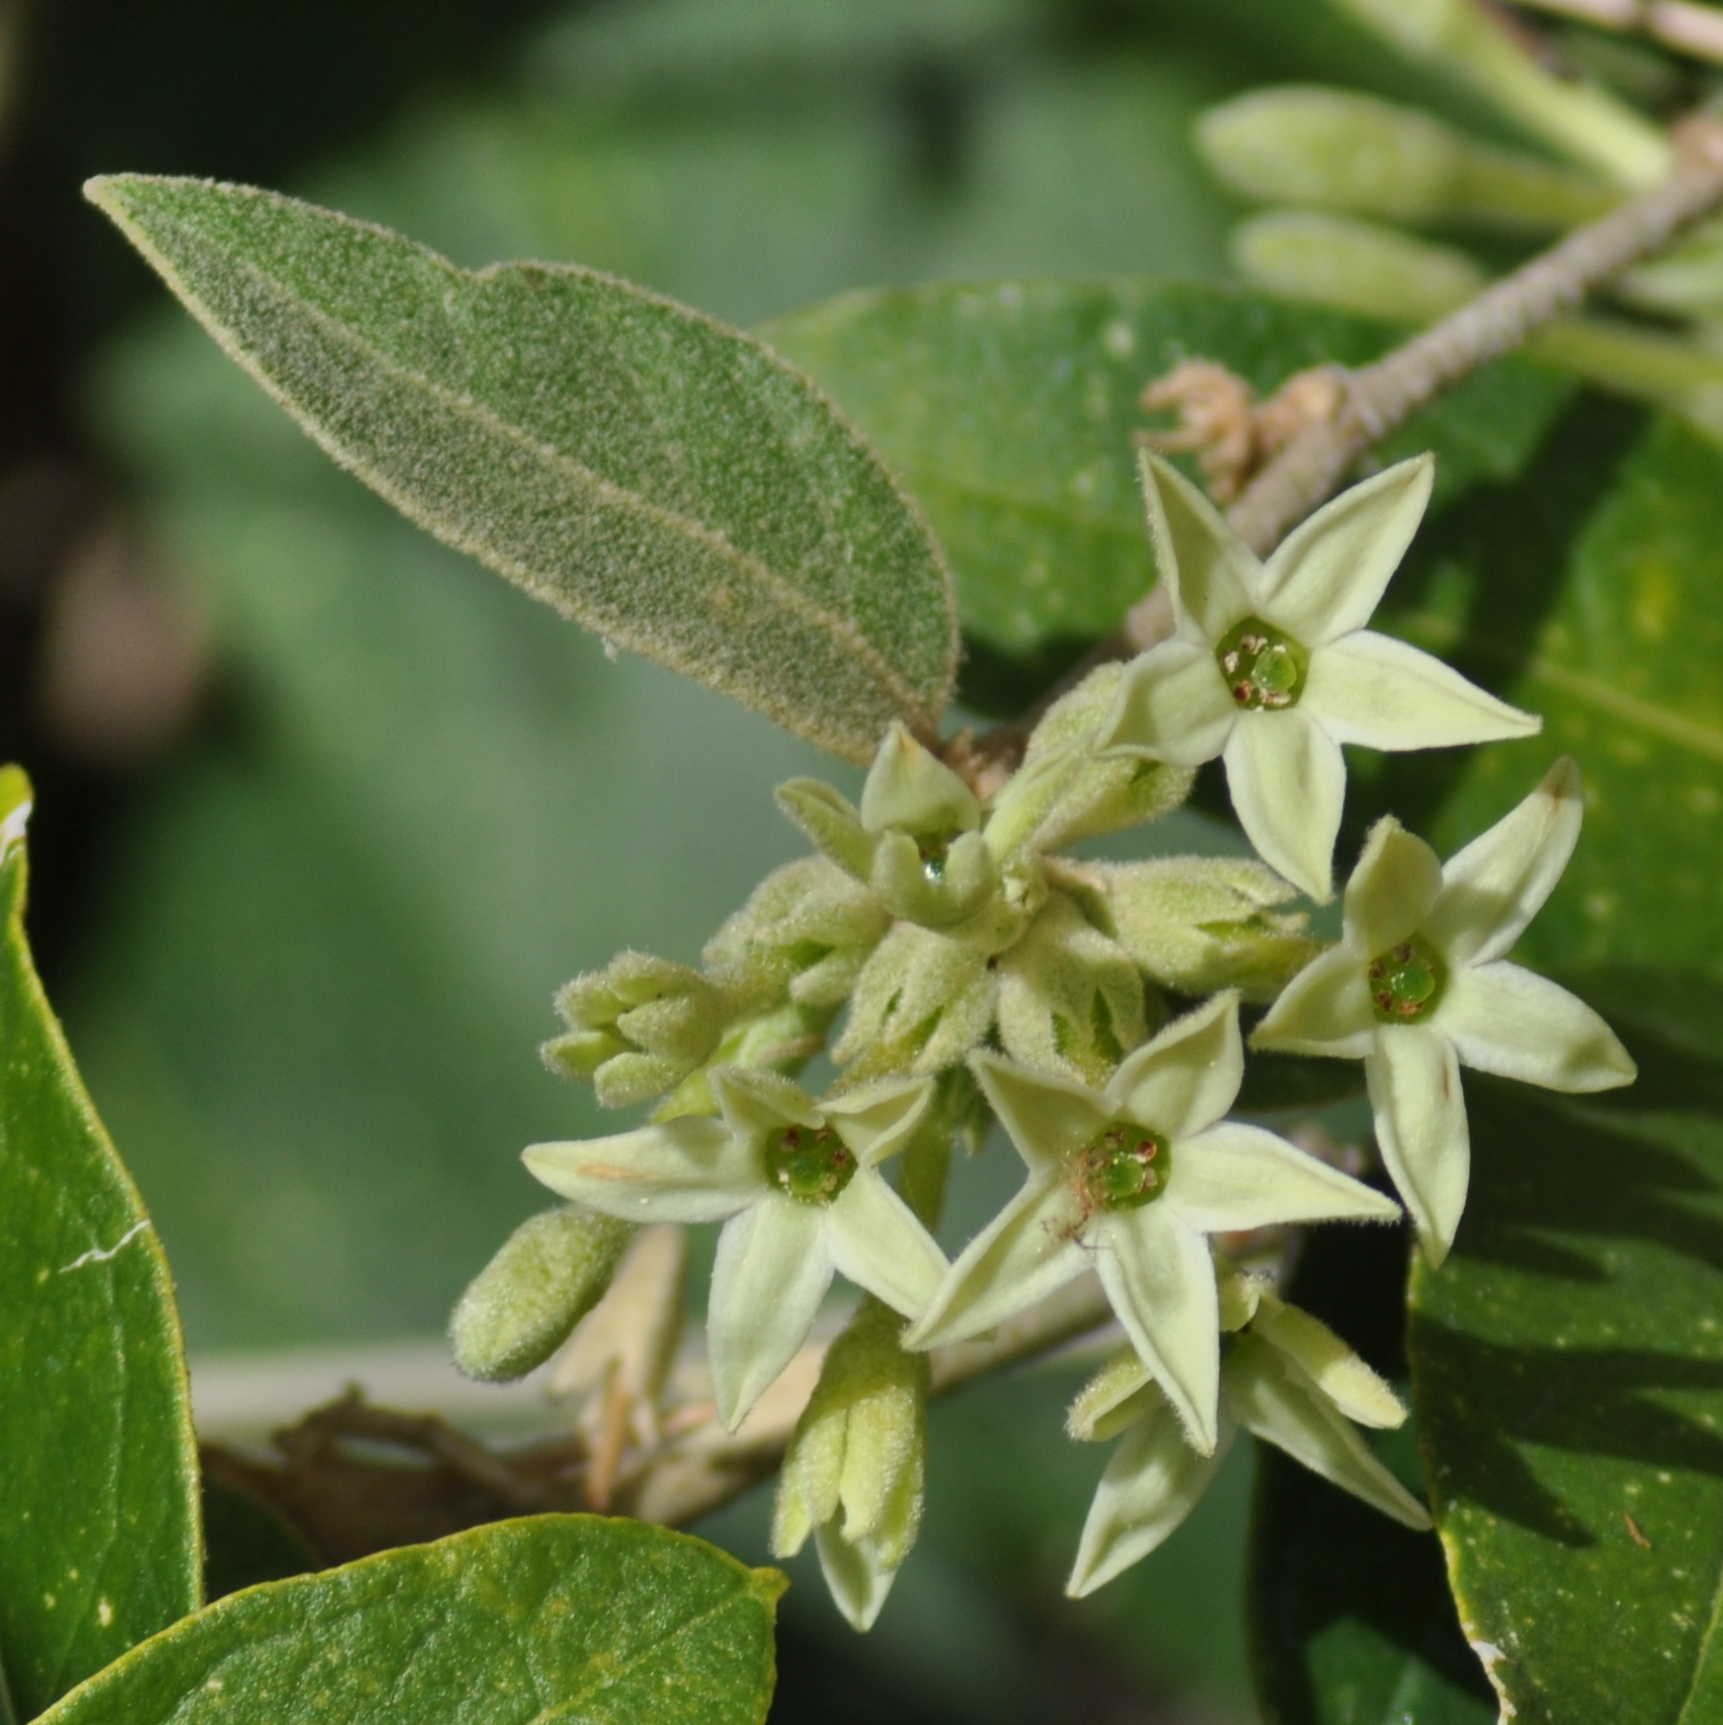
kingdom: Plantae
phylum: Tracheophyta
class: Magnoliopsida
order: Solanales
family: Solanaceae
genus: Cestrum
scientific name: Cestrum strigillatum
